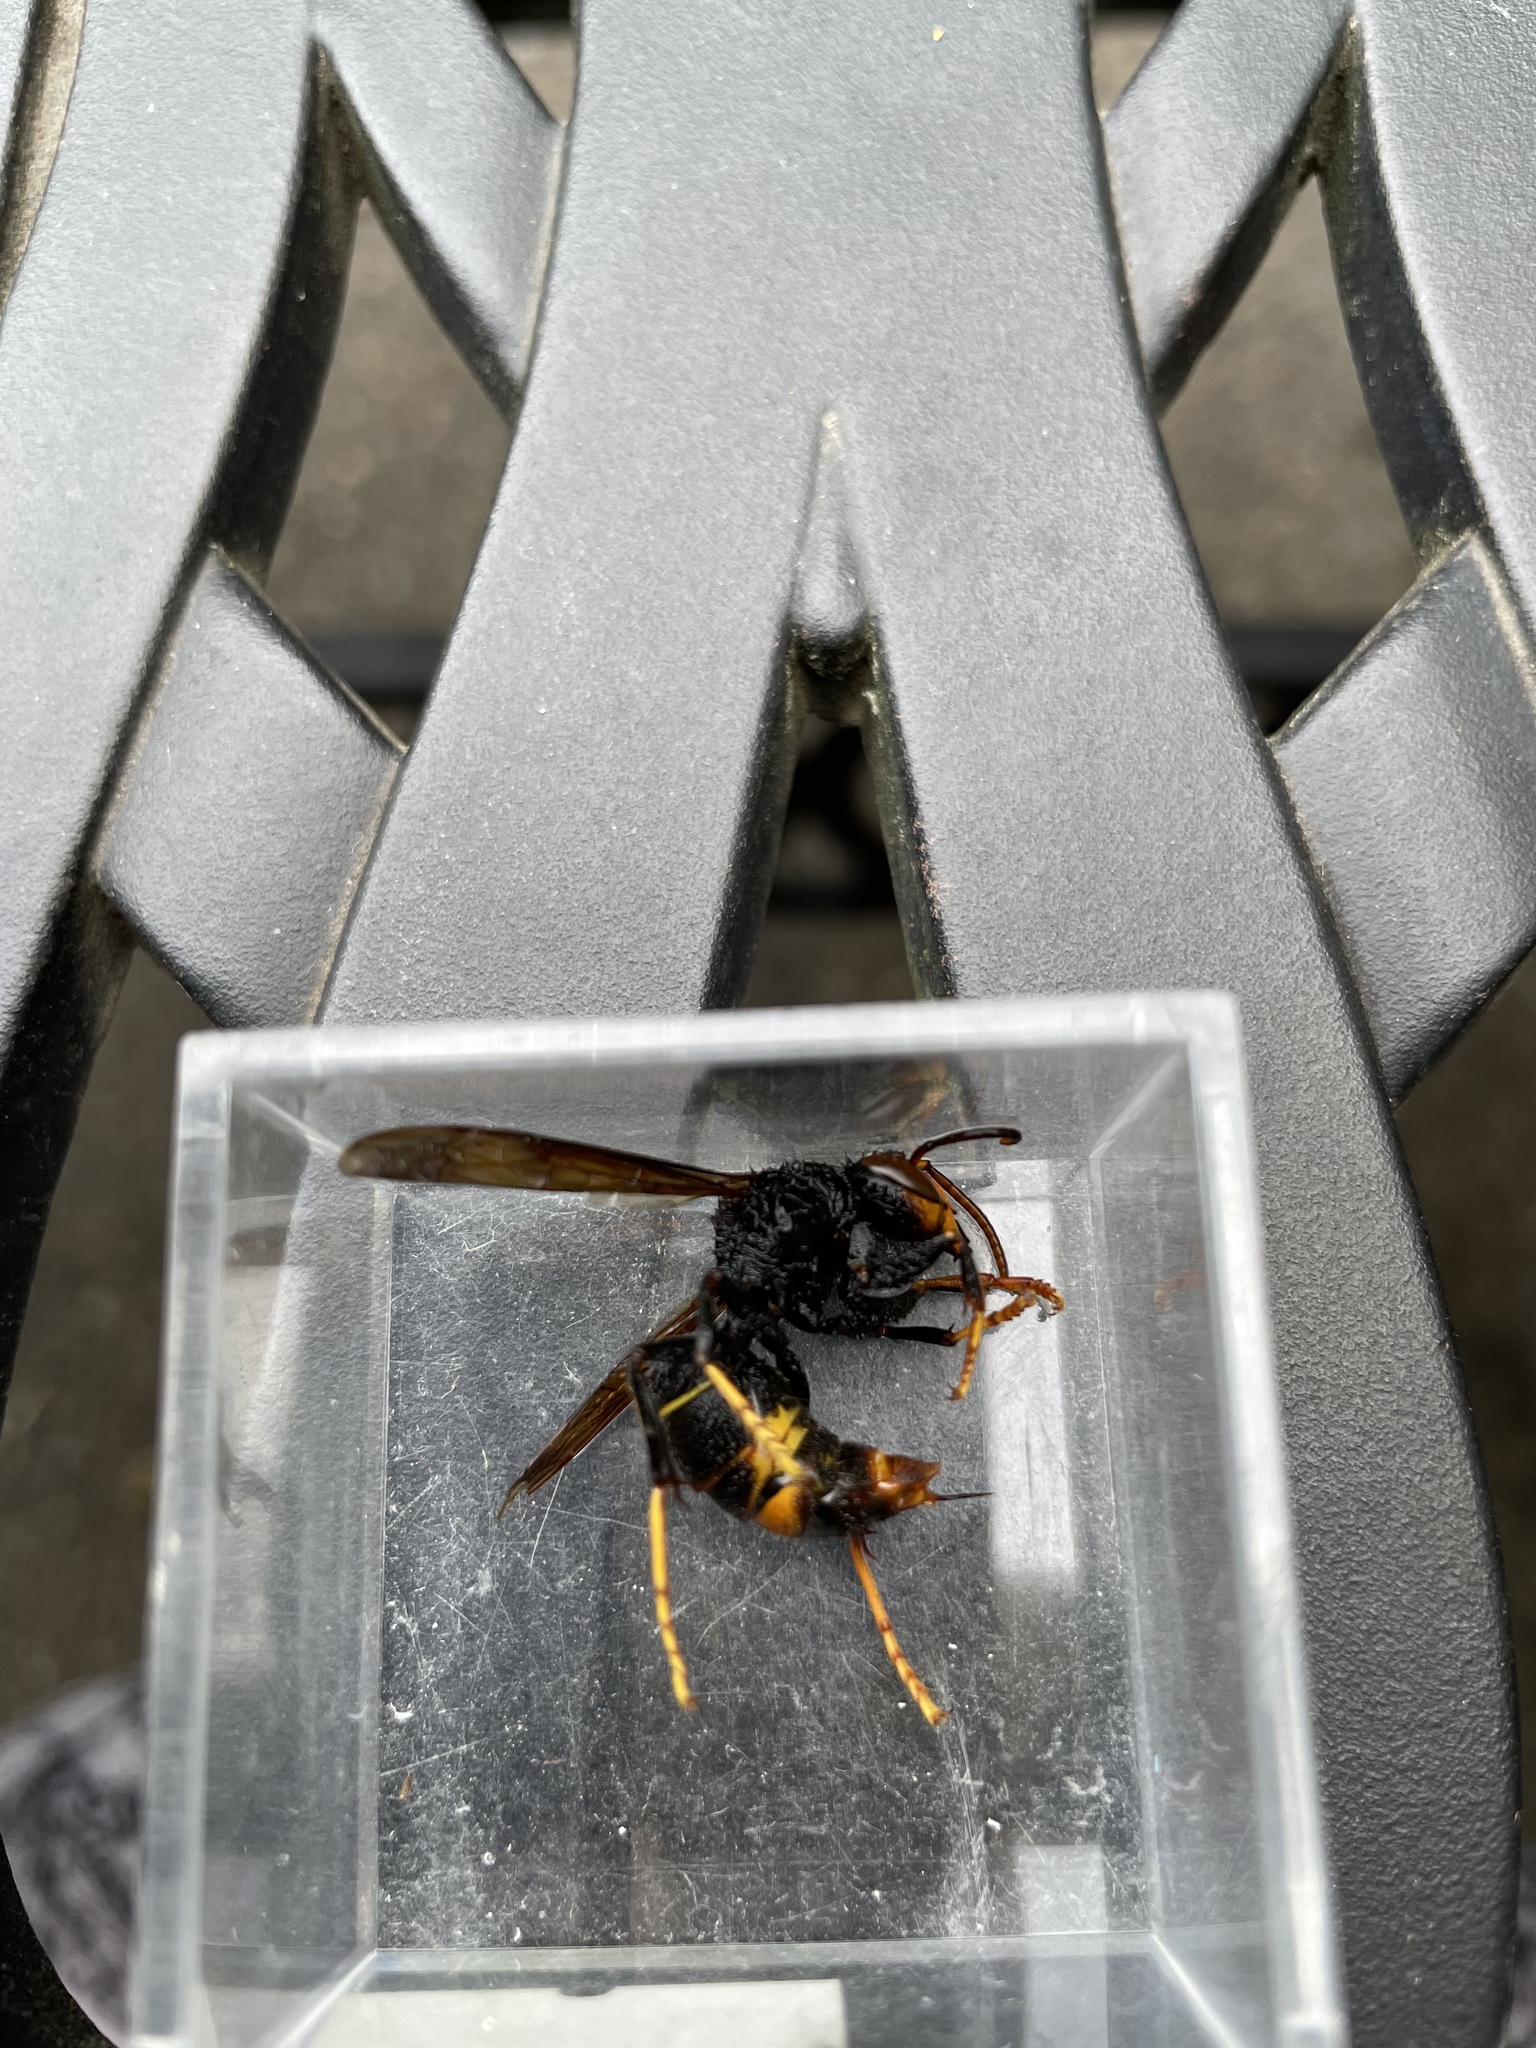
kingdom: Animalia
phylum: Arthropoda
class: Insecta
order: Hymenoptera
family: Vespidae
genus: Vespa
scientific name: Vespa velutina
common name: Asian hornet
